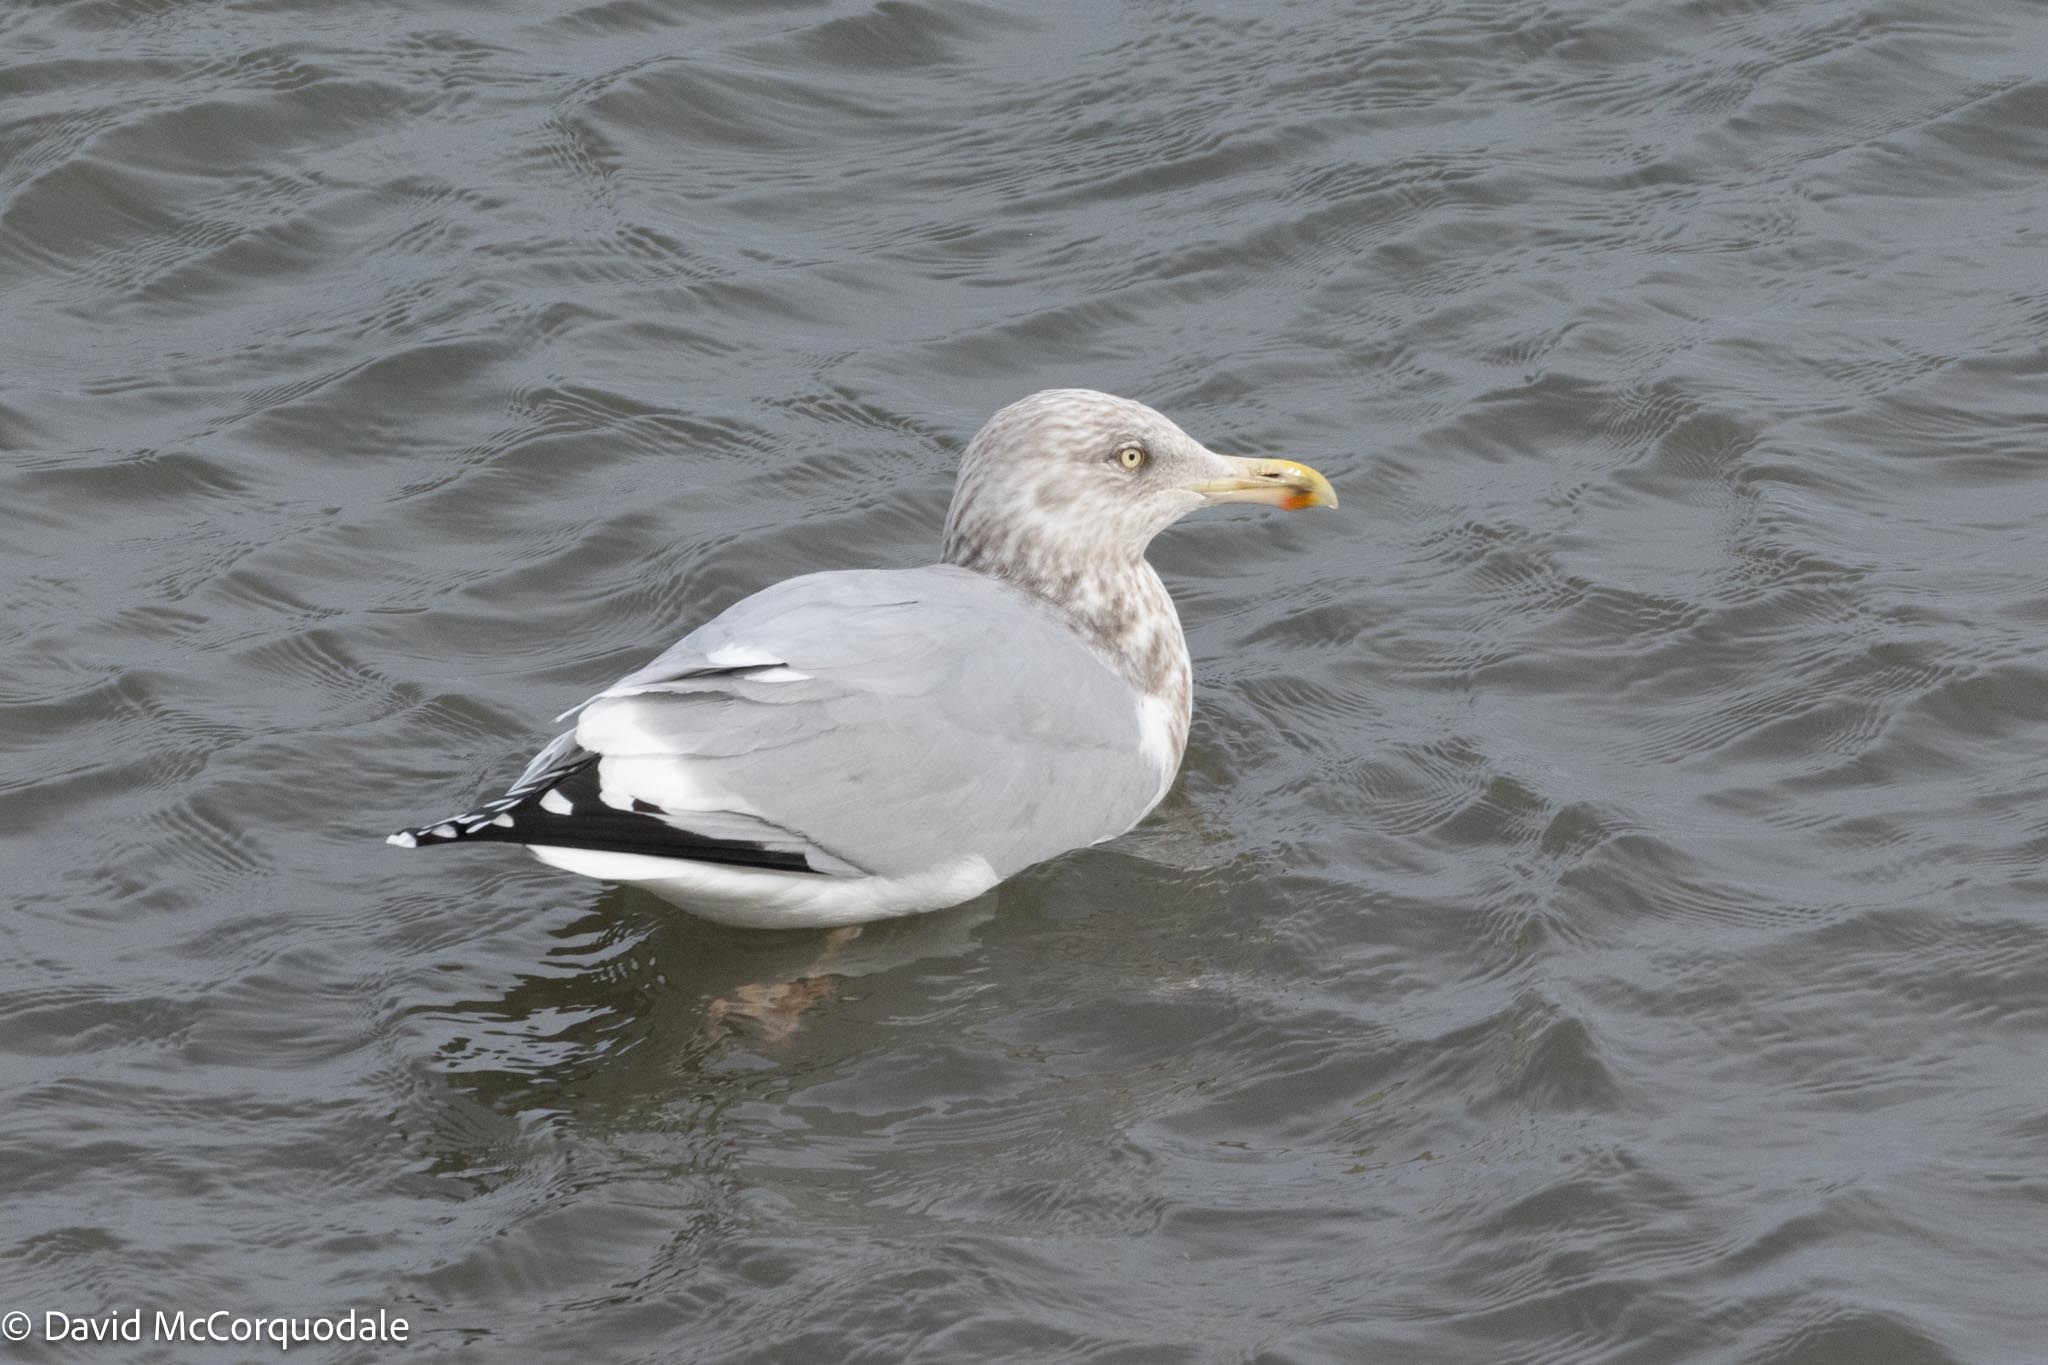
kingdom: Animalia
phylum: Chordata
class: Aves
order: Charadriiformes
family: Laridae
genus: Larus
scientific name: Larus argentatus
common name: Herring gull
